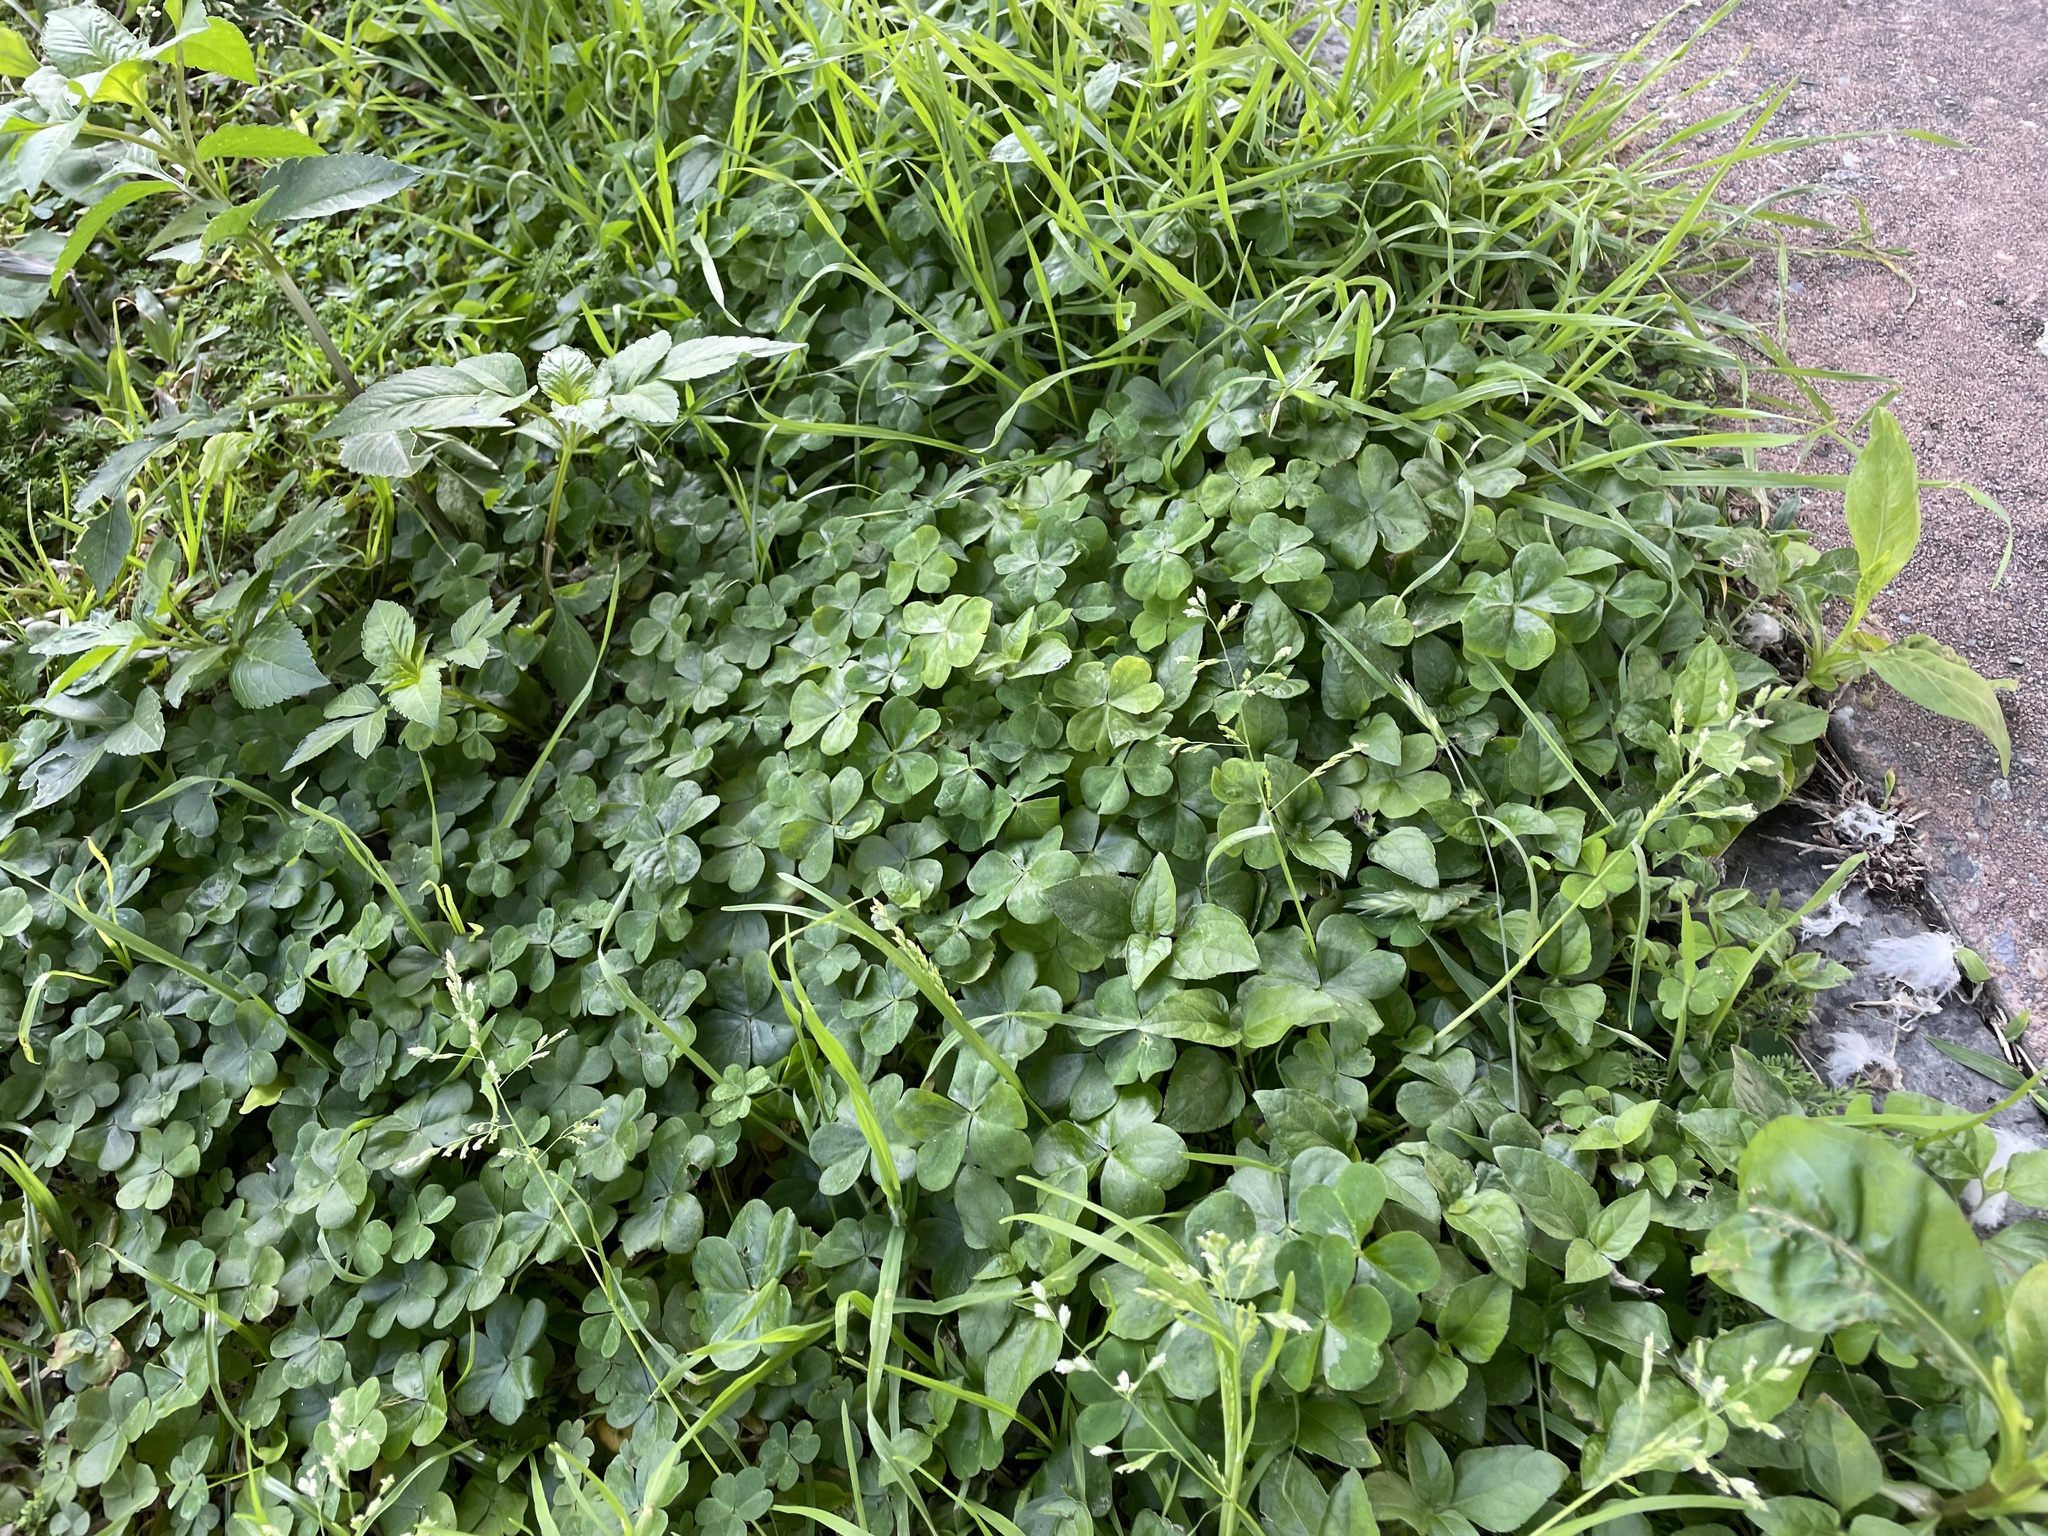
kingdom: Plantae
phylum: Tracheophyta
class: Magnoliopsida
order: Oxalidales
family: Oxalidaceae
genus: Oxalis
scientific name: Oxalis debilis
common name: Large-flowered pink-sorrel
